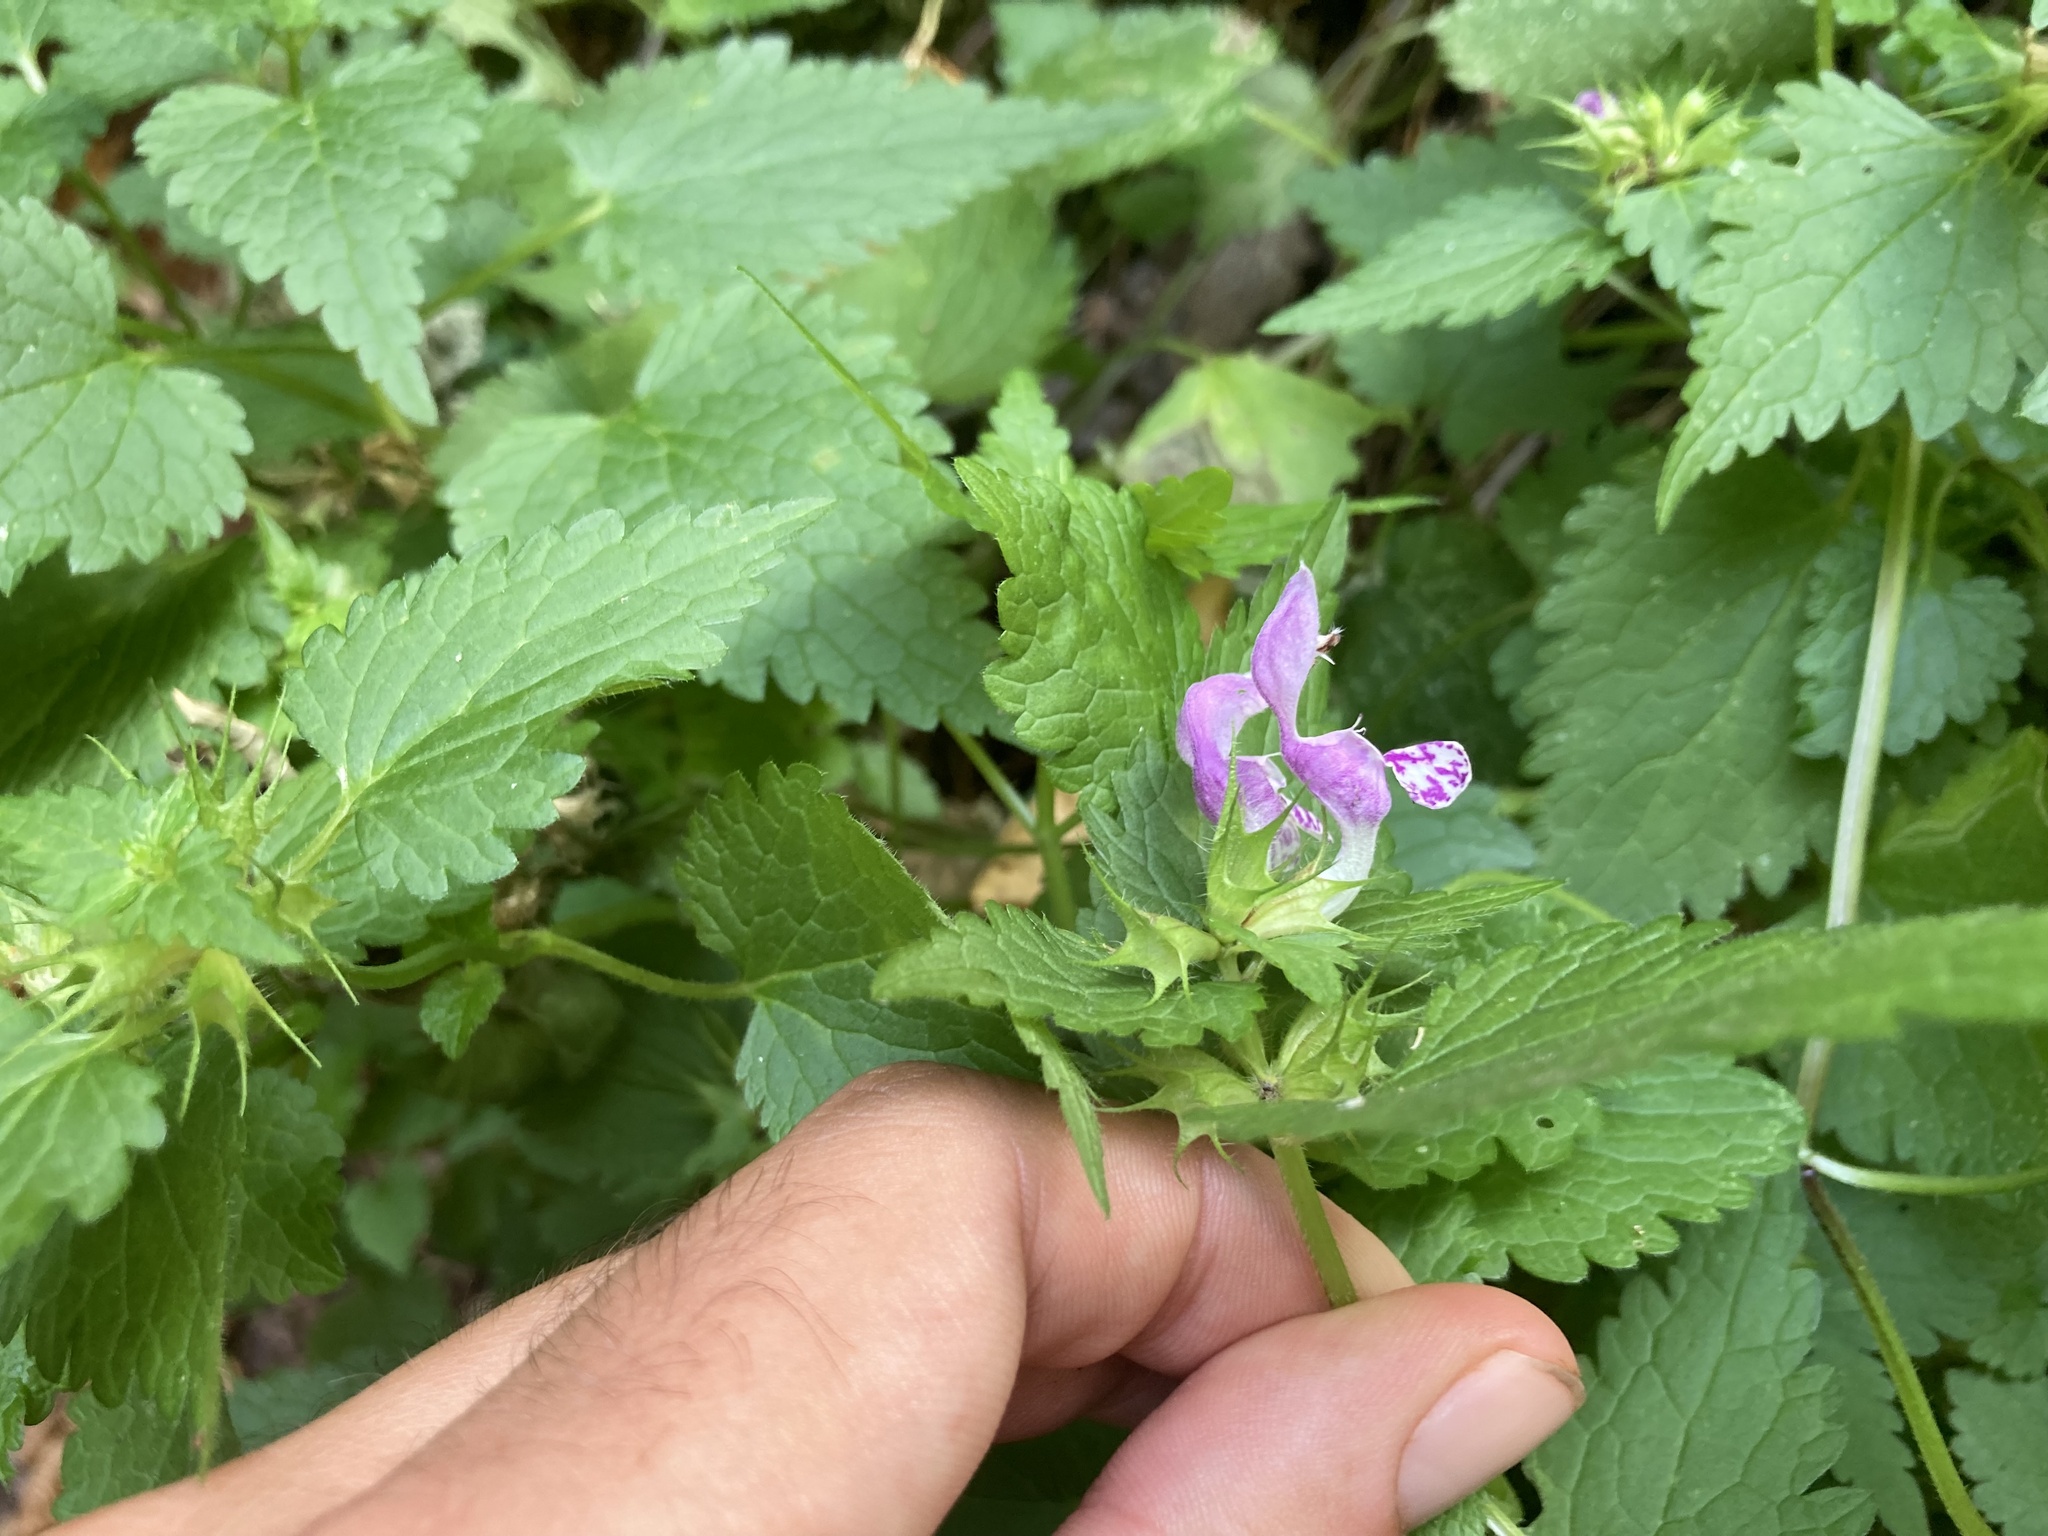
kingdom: Plantae
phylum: Tracheophyta
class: Magnoliopsida
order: Lamiales
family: Lamiaceae
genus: Lamium
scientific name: Lamium maculatum
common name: Spotted dead-nettle
